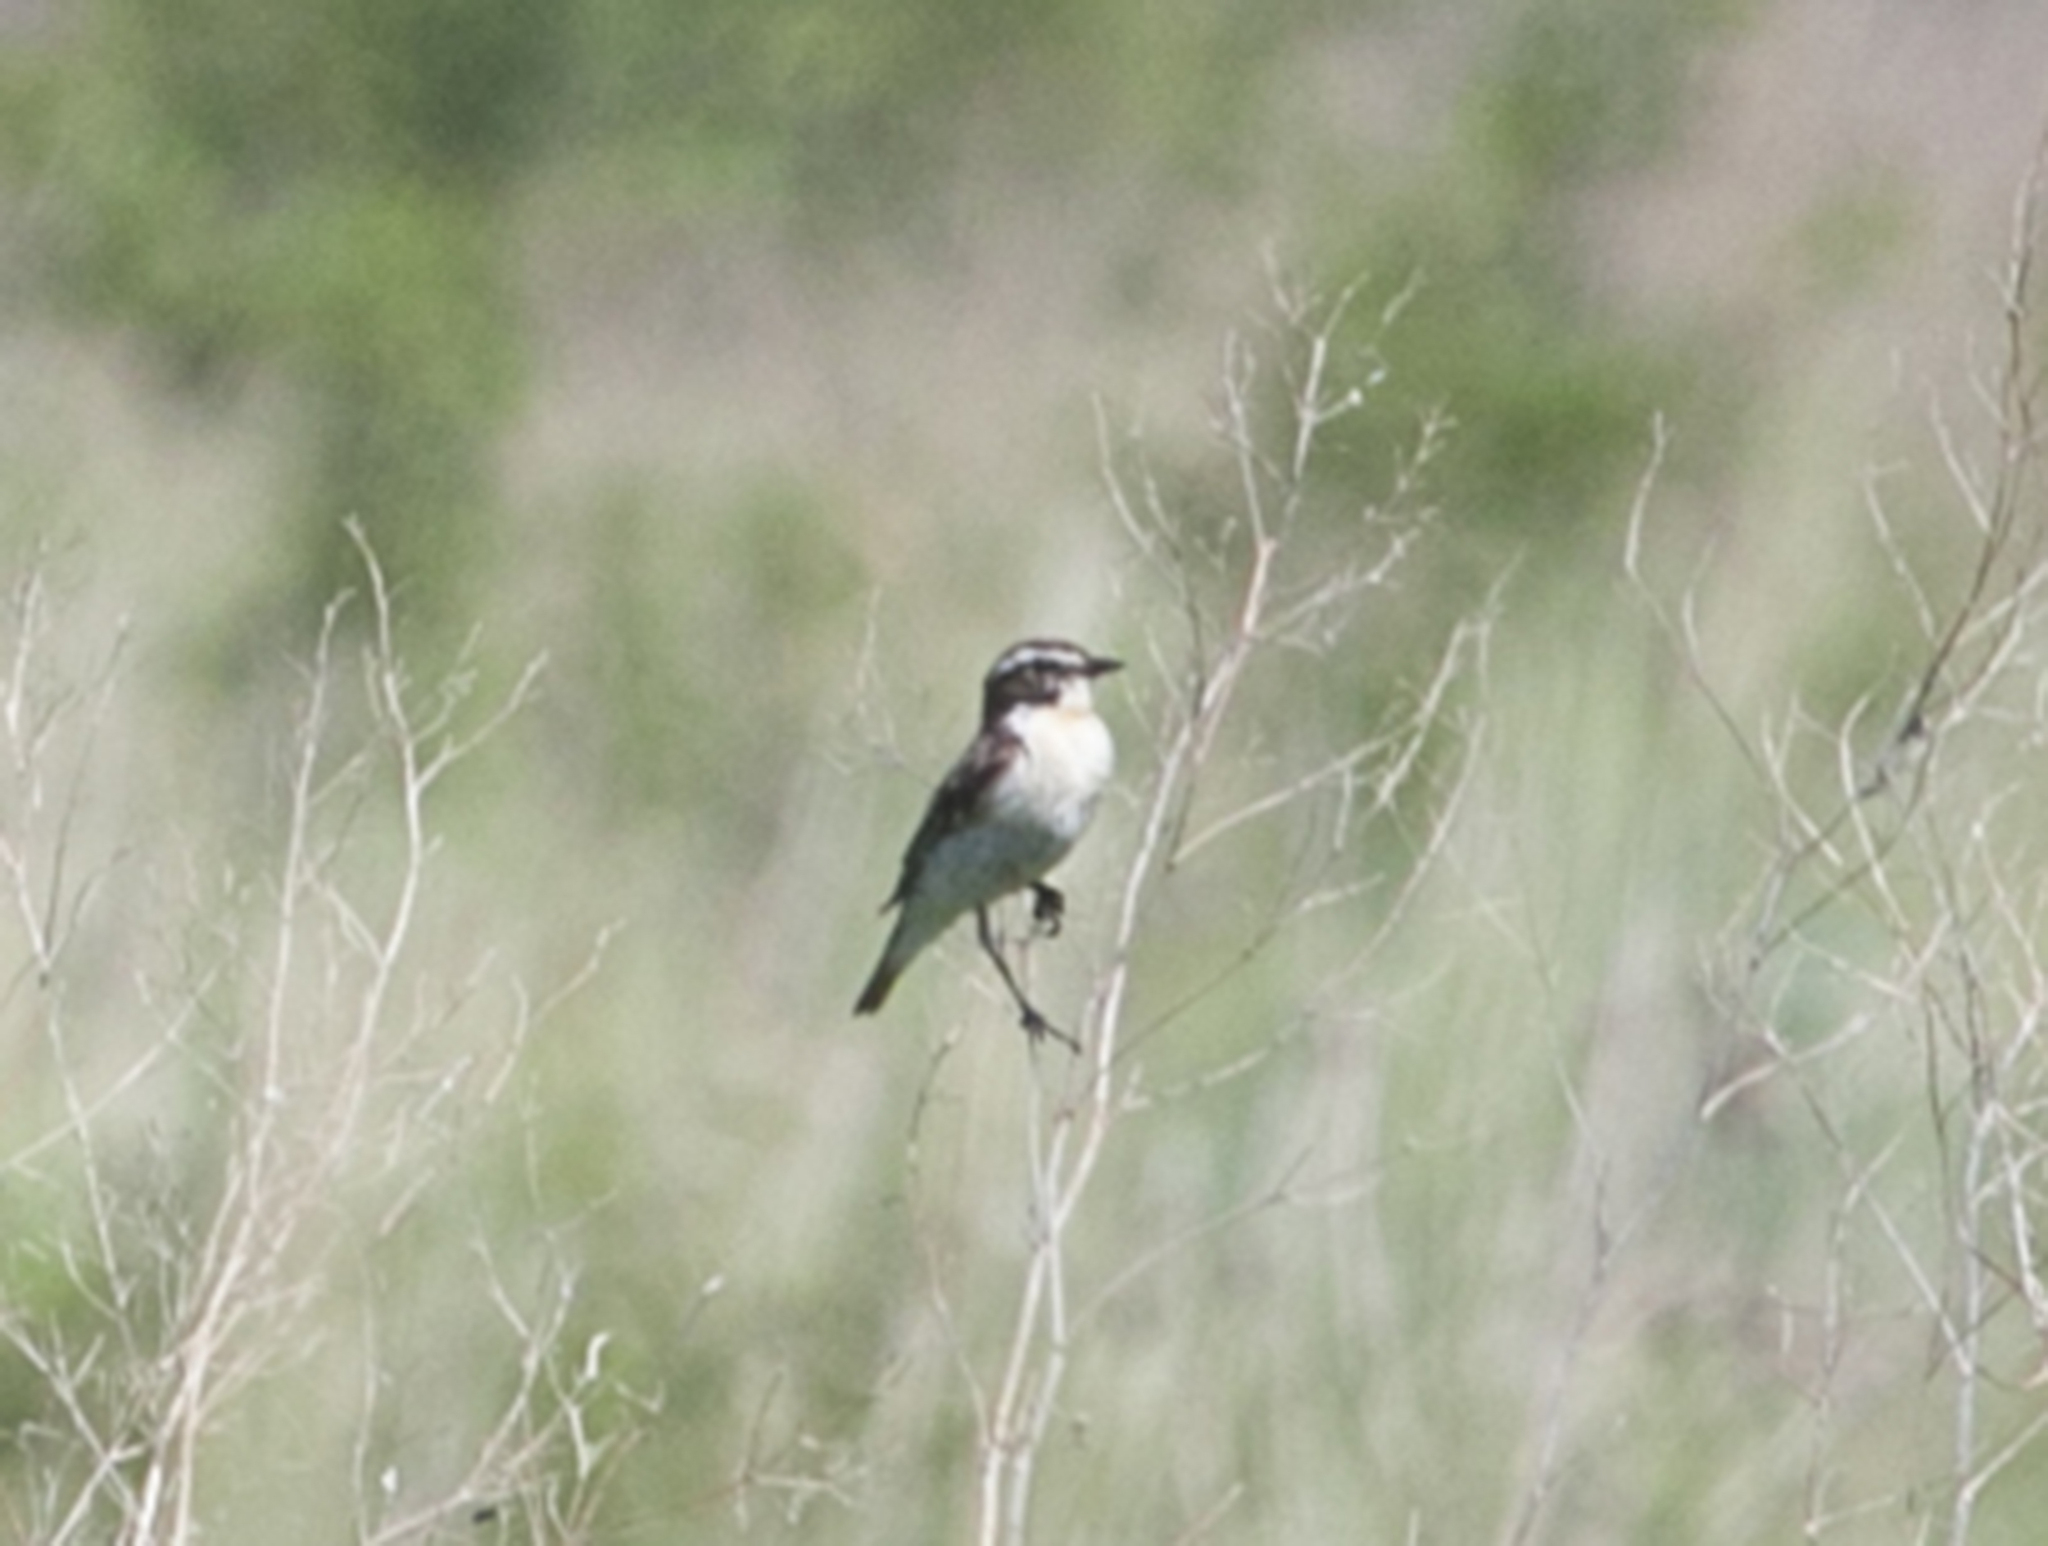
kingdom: Animalia
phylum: Chordata
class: Aves
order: Passeriformes
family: Muscicapidae
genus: Saxicola
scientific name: Saxicola rubetra
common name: Whinchat
